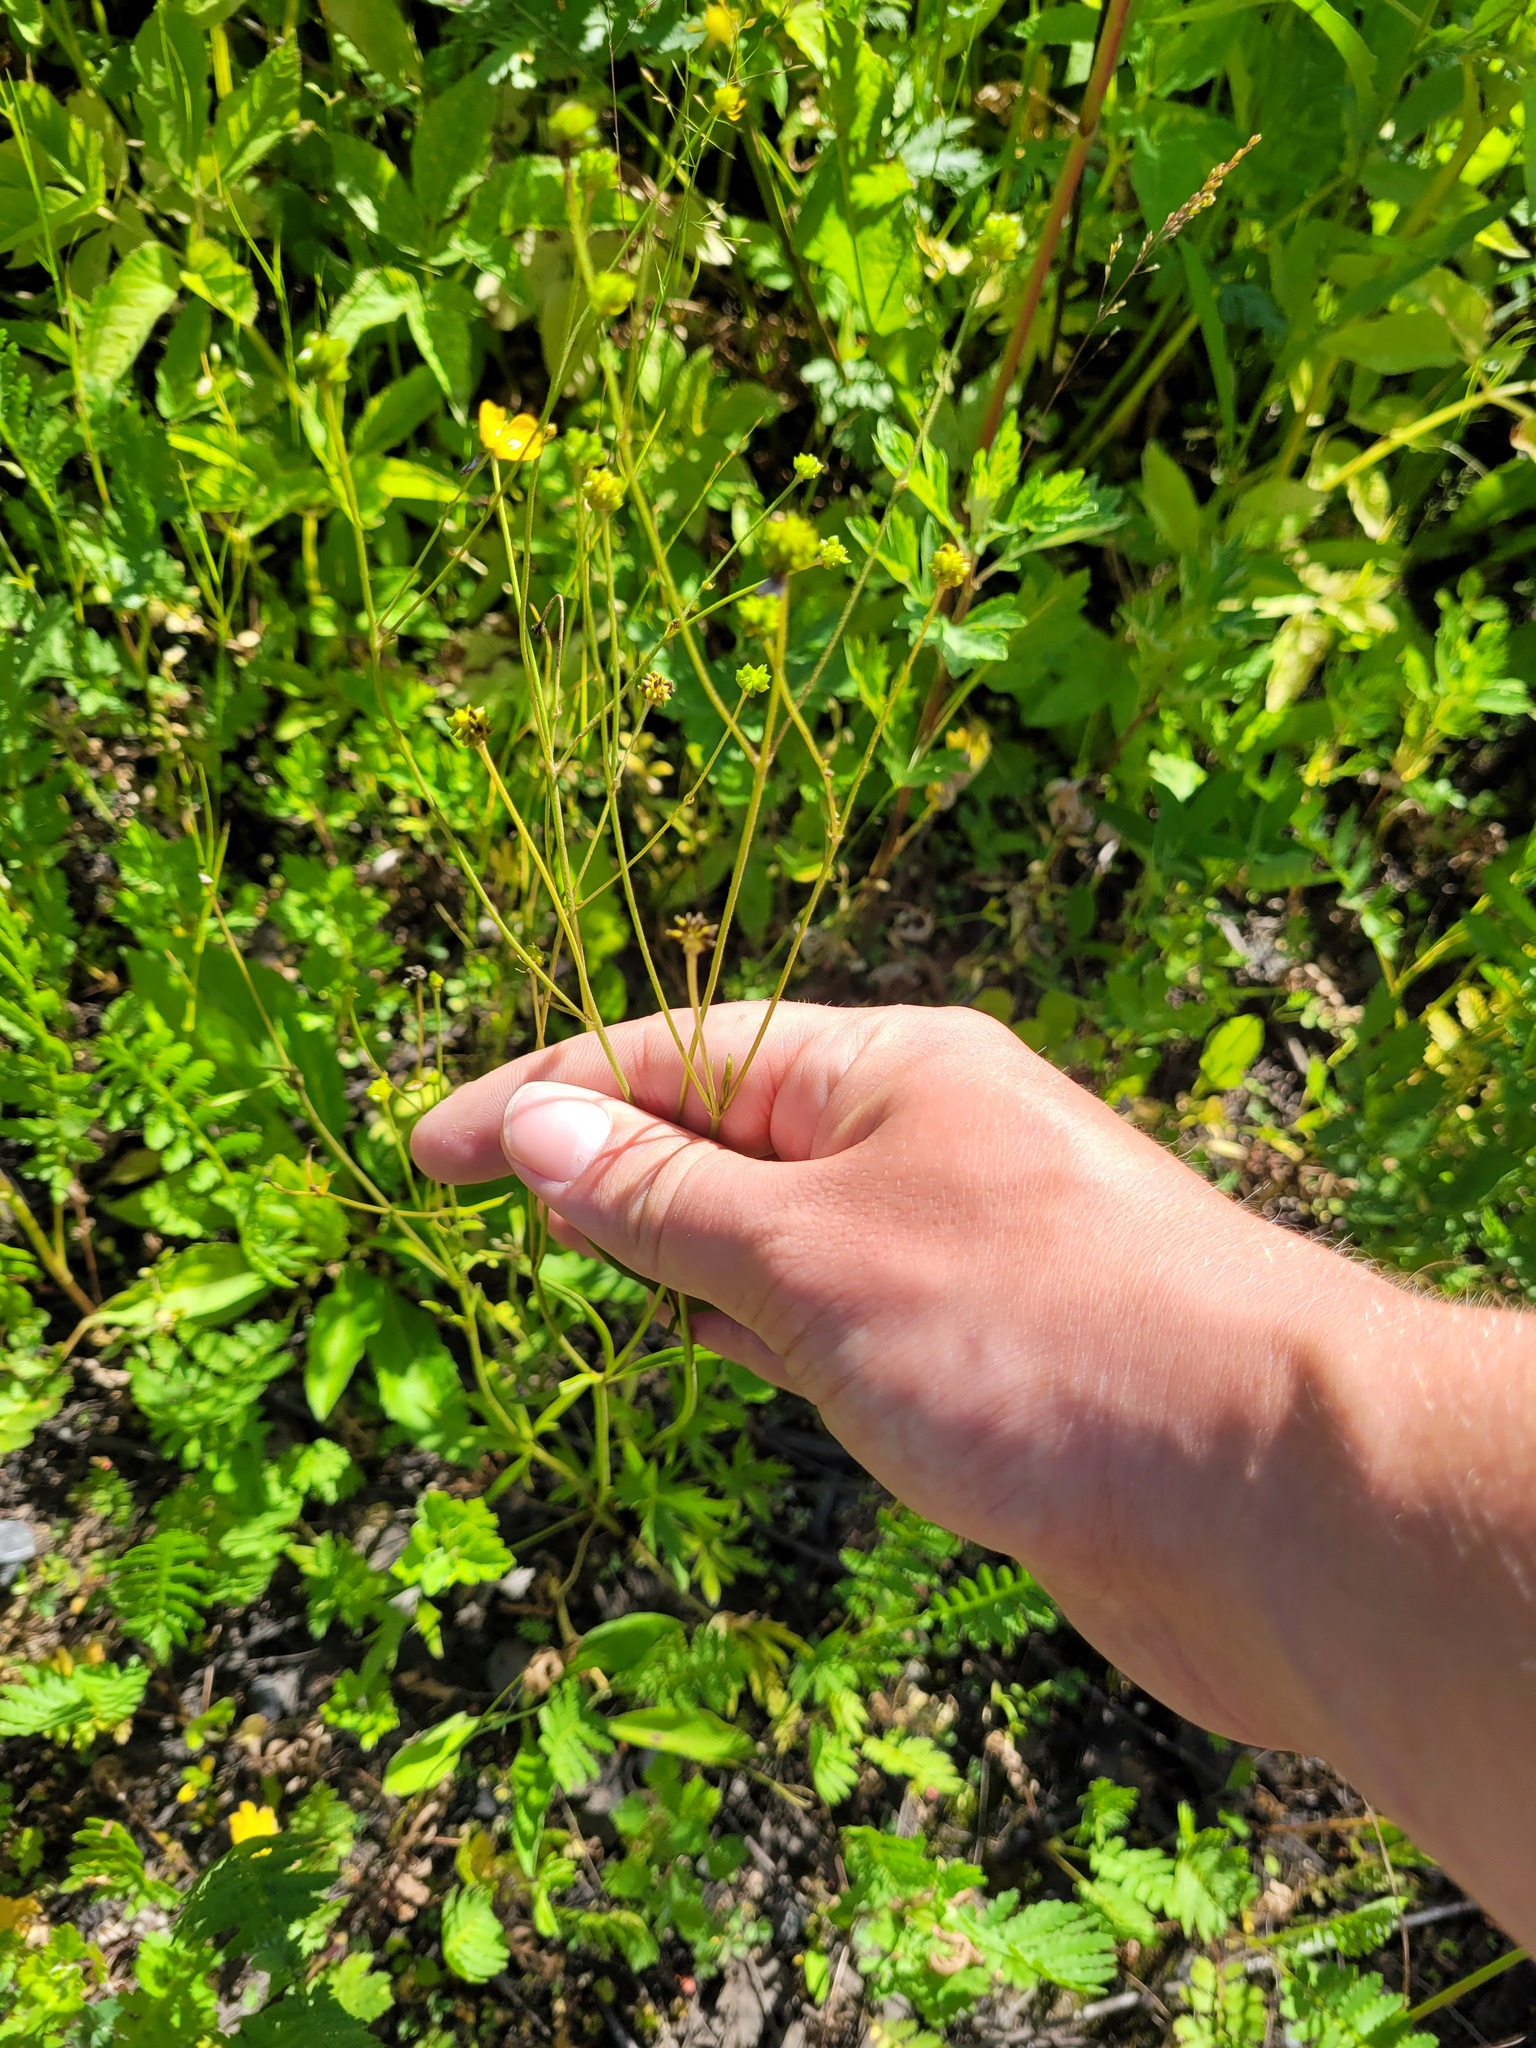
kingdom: Plantae
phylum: Tracheophyta
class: Magnoliopsida
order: Ranunculales
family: Ranunculaceae
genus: Ranunculus
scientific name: Ranunculus acris
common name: Meadow buttercup
